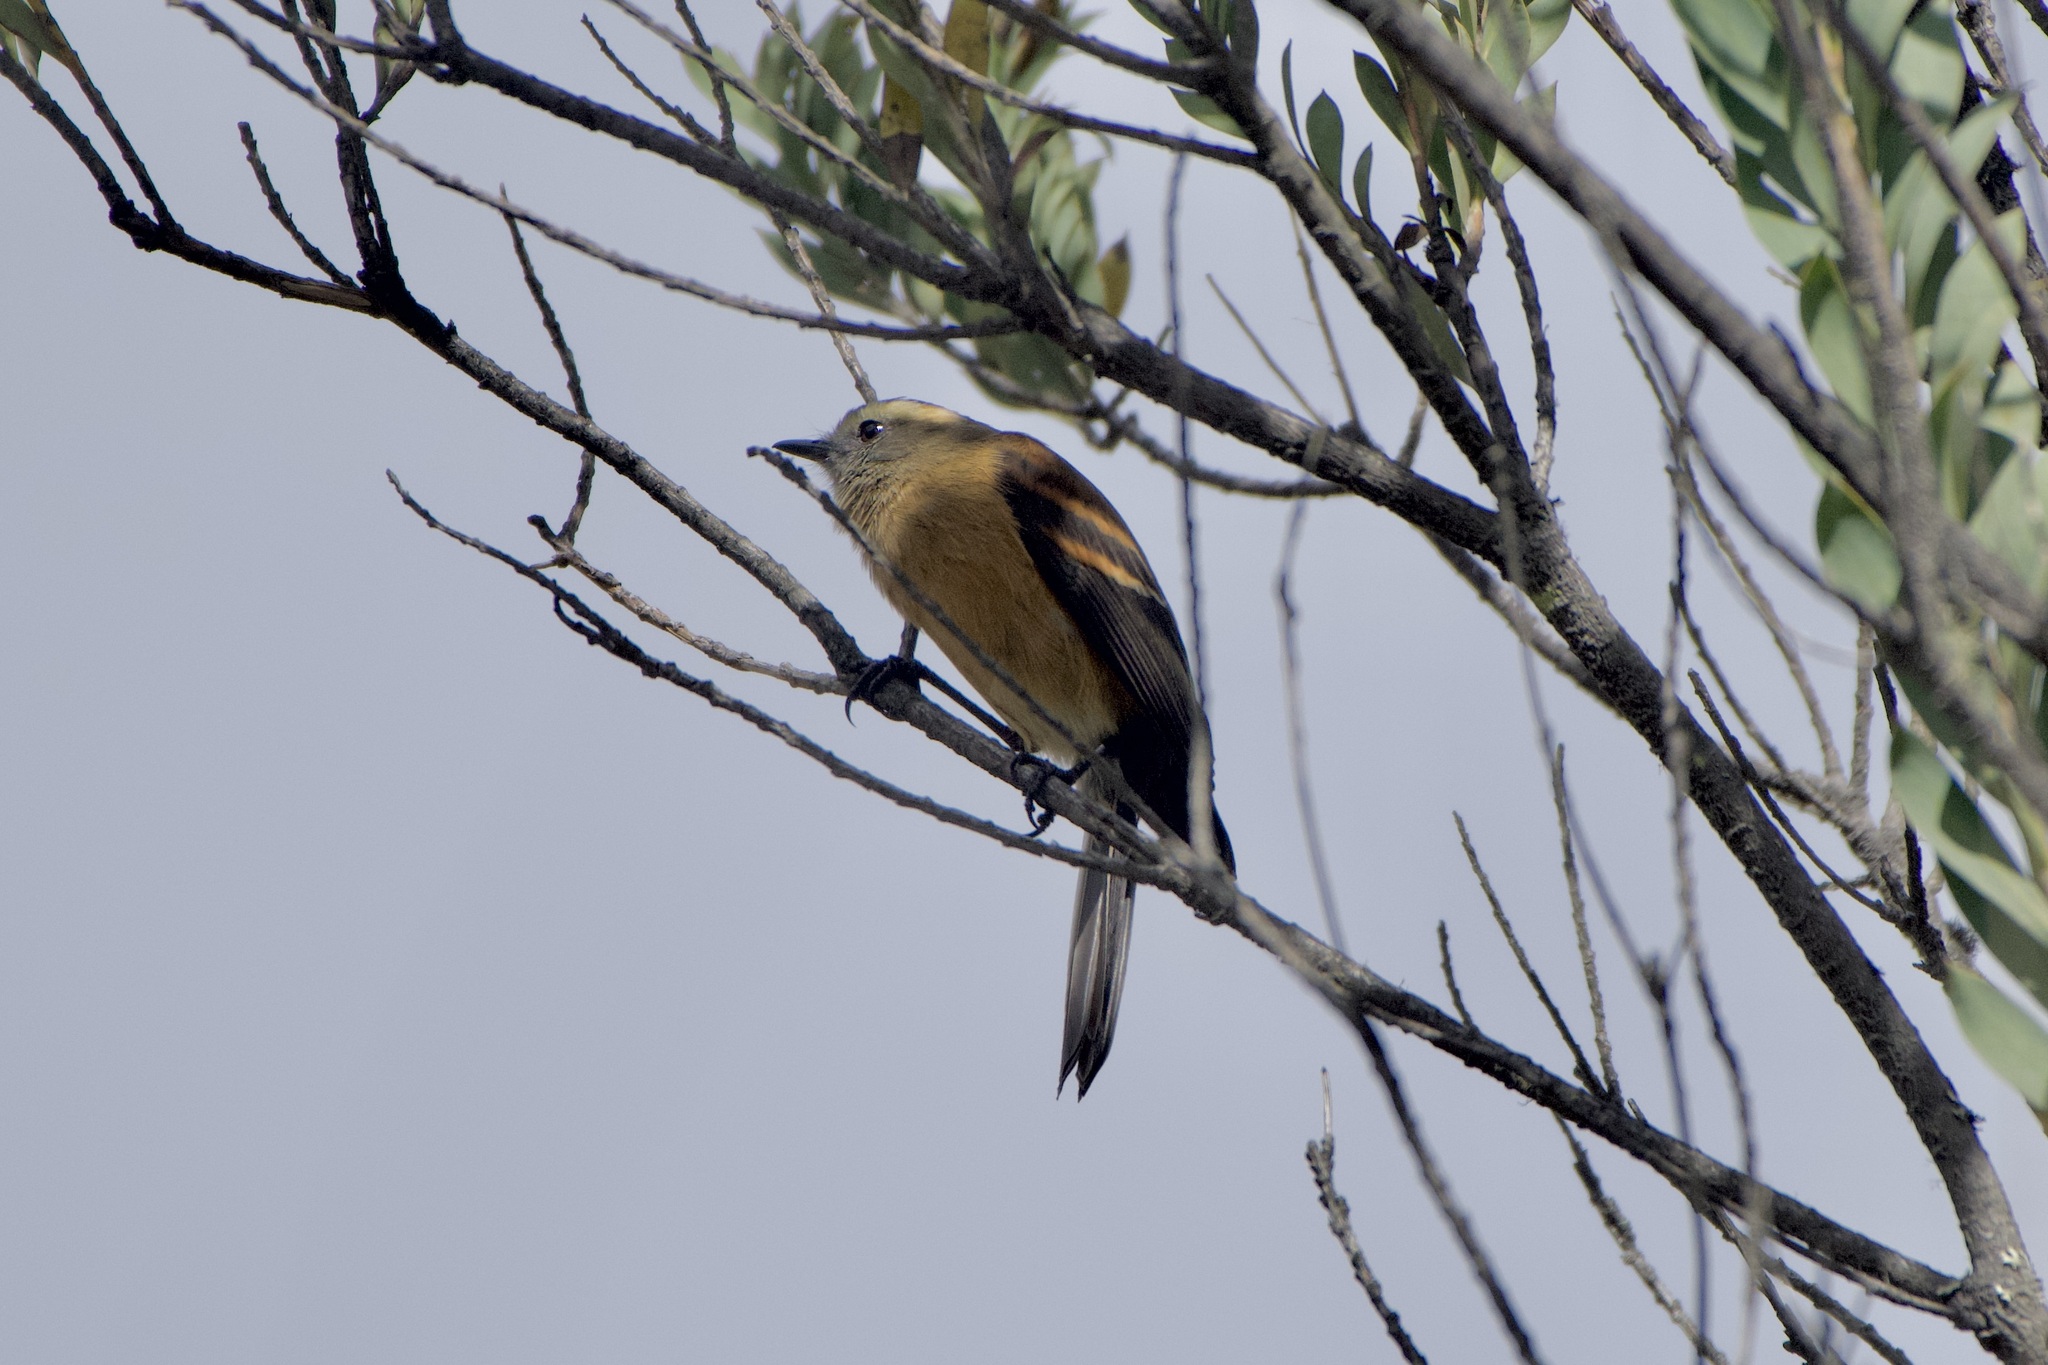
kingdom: Animalia
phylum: Chordata
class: Aves
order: Passeriformes
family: Tyrannidae
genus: Ochthoeca
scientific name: Ochthoeca fumicolor
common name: Brown-backed chat-tyrant
